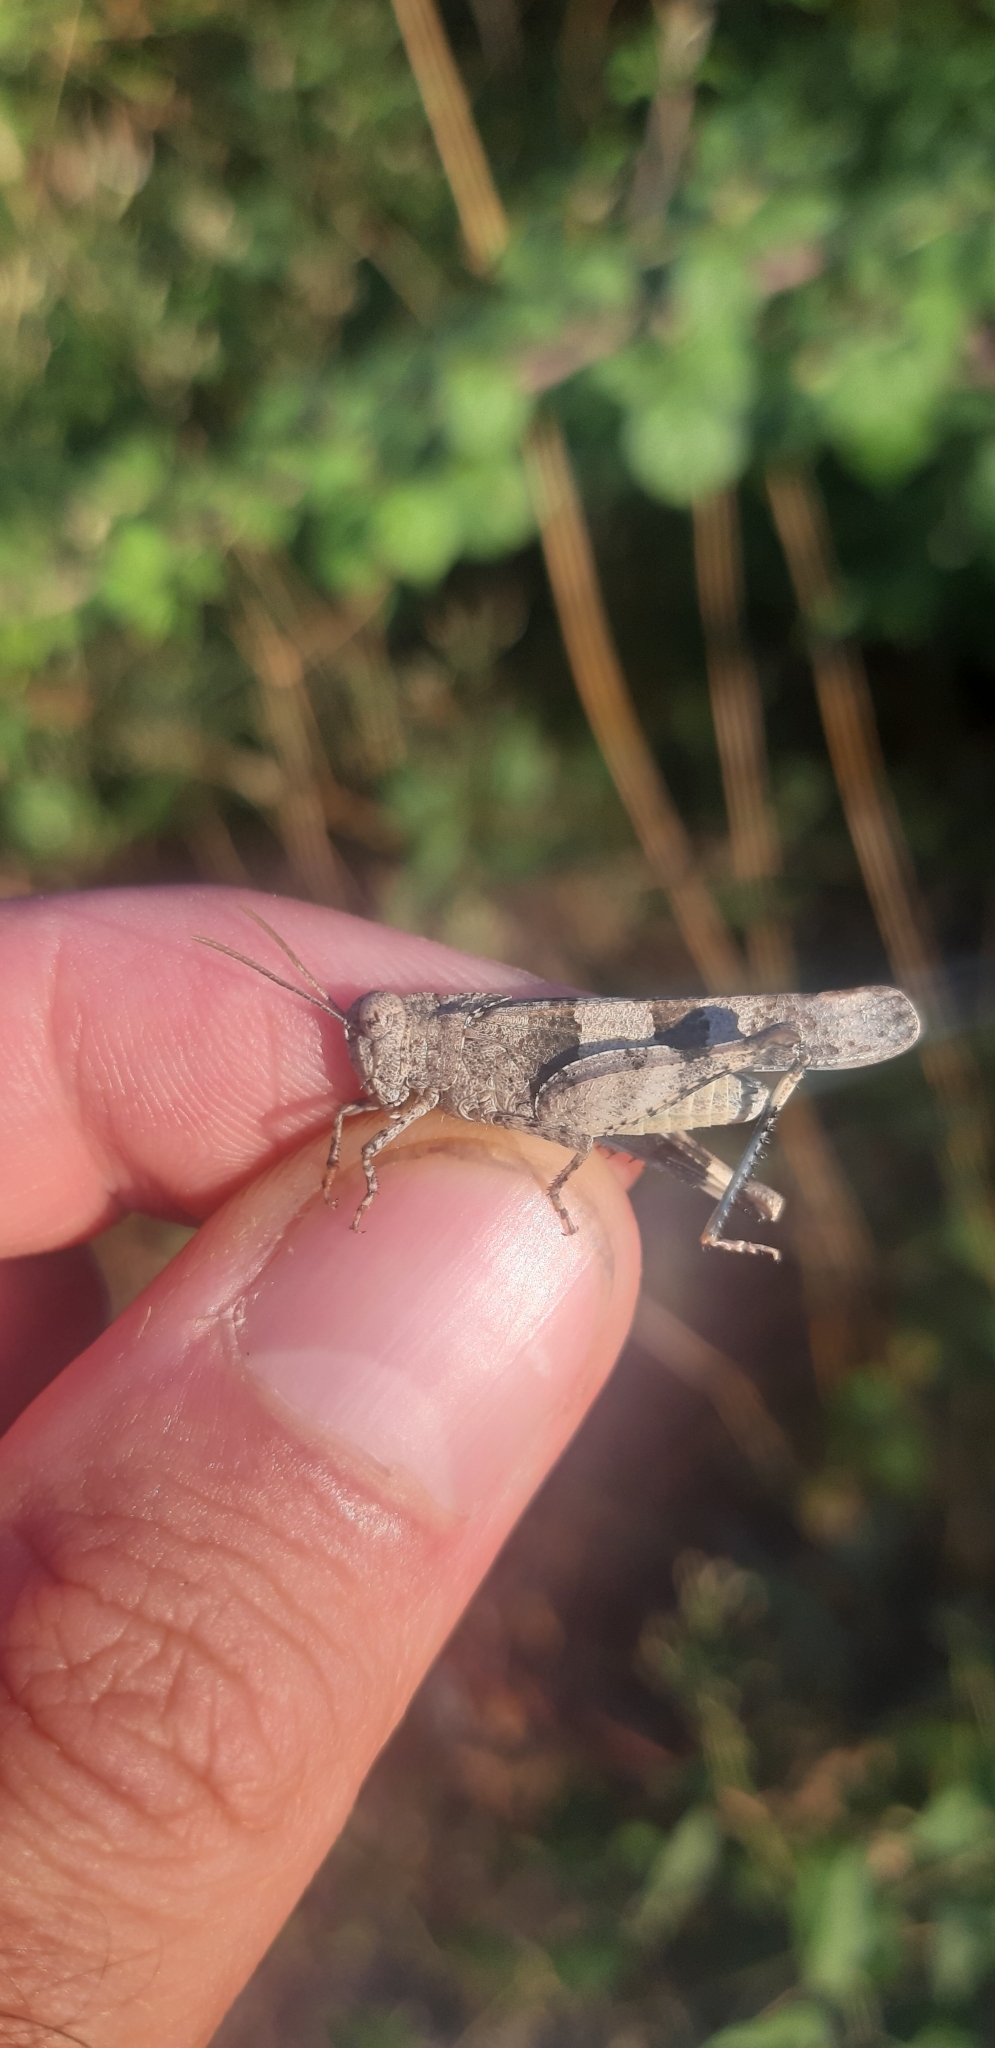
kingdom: Animalia
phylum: Arthropoda
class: Insecta
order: Orthoptera
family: Acrididae
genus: Oedipoda
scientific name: Oedipoda caerulescens
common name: Blue-winged grasshopper
